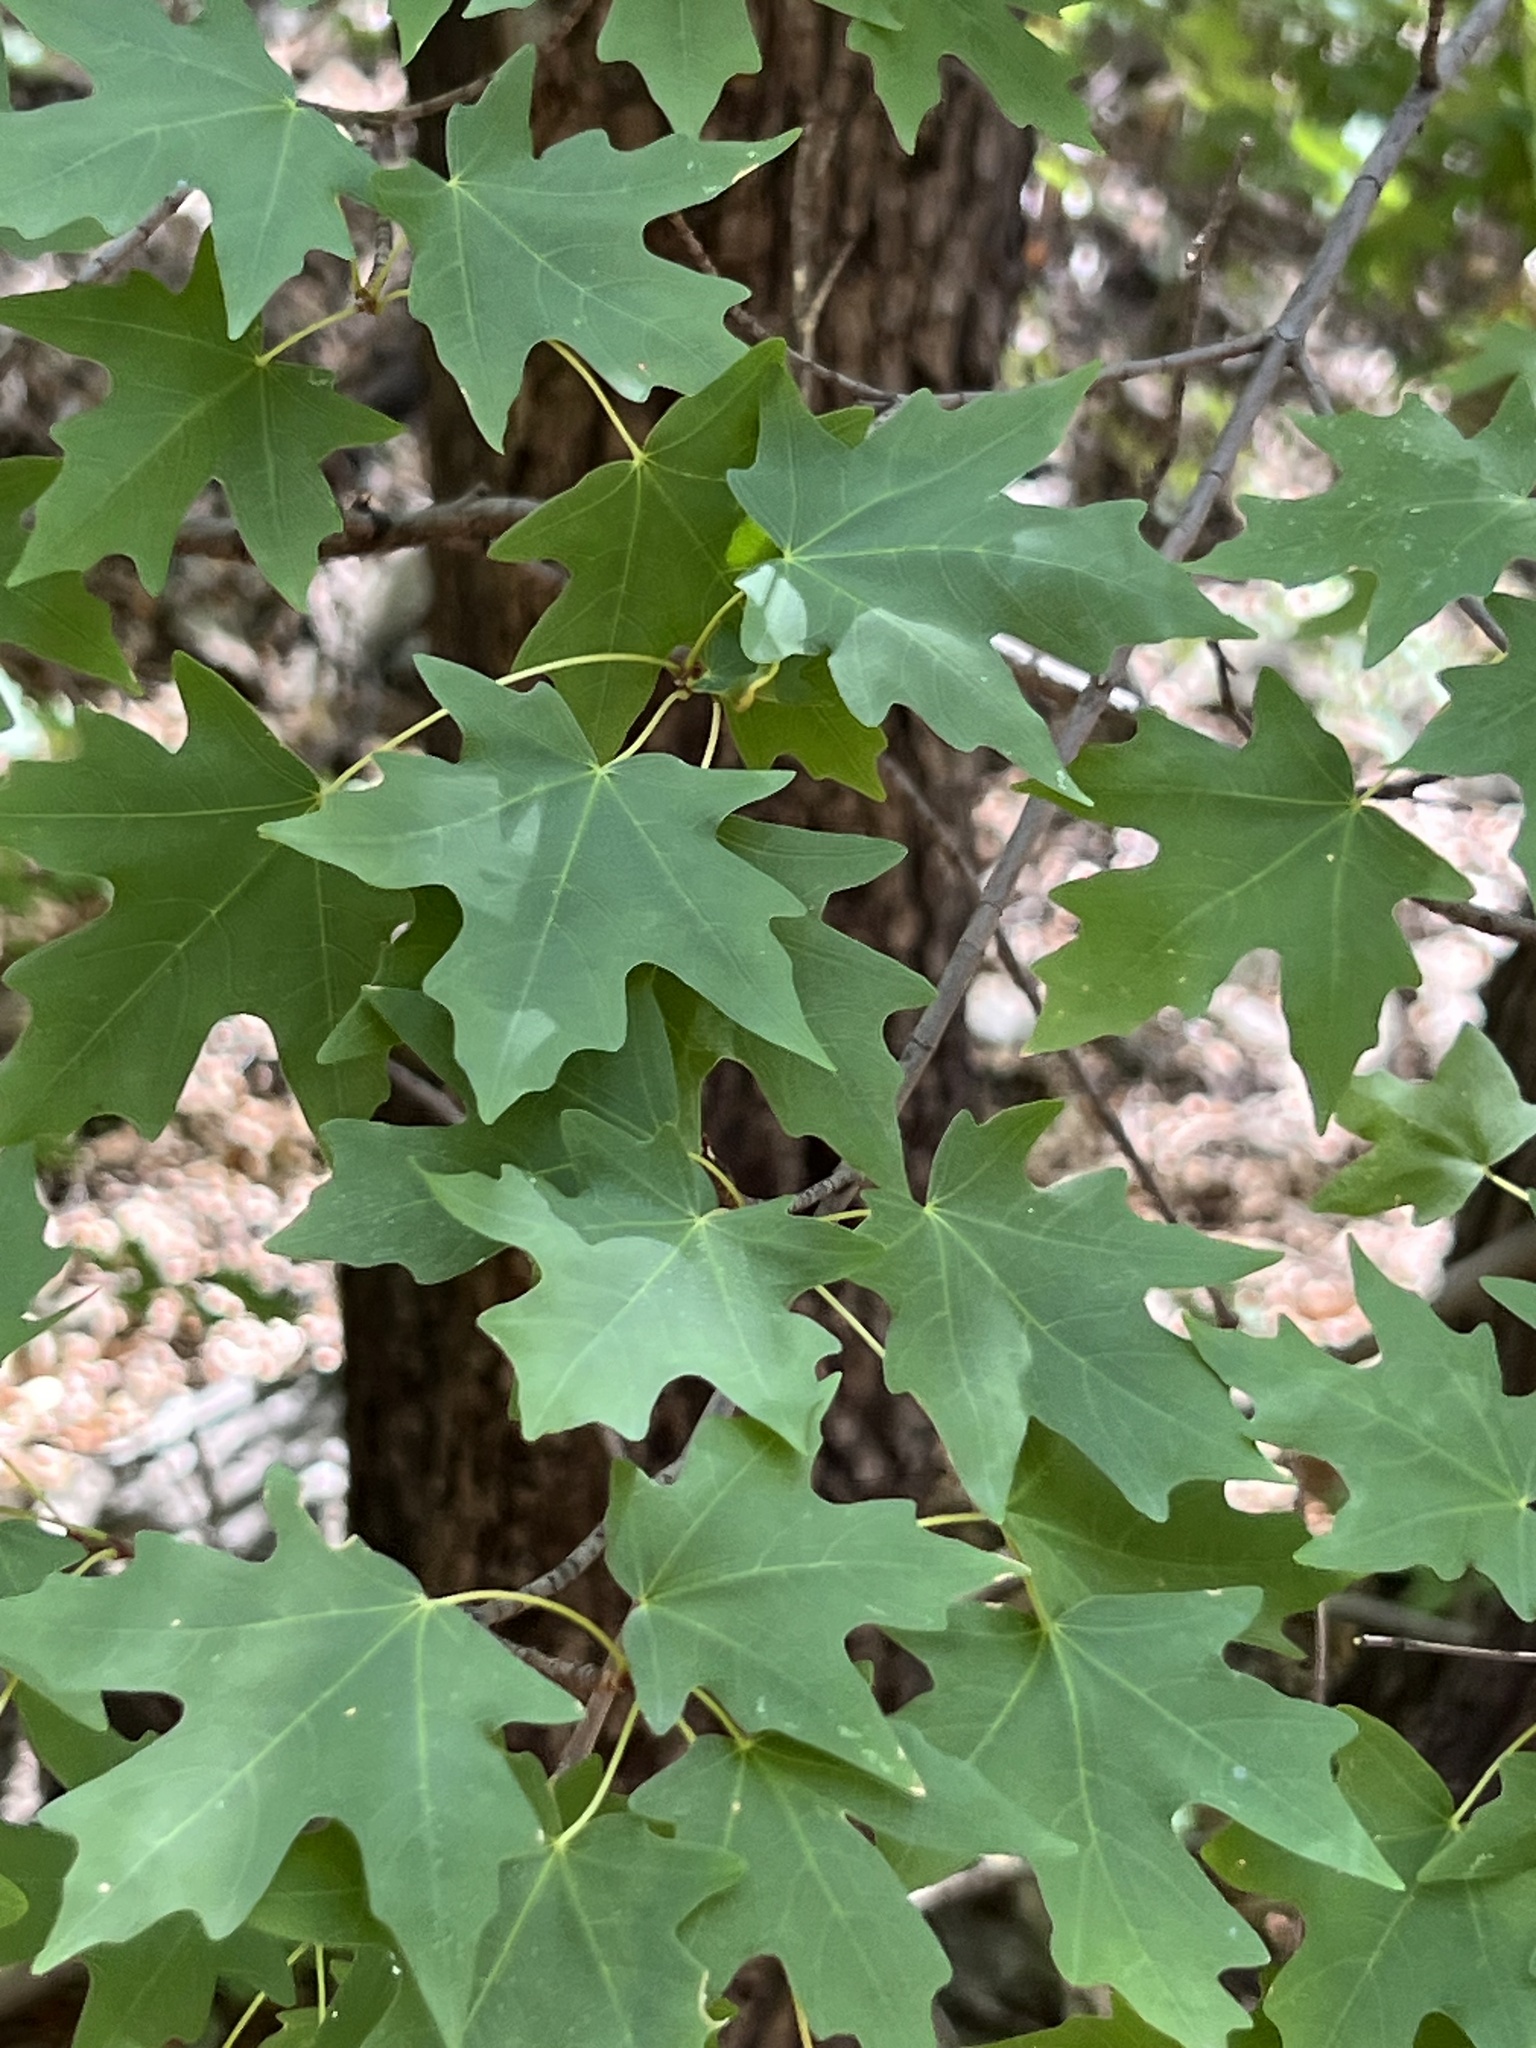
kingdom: Plantae
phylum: Tracheophyta
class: Magnoliopsida
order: Sapindales
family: Sapindaceae
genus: Acer
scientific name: Acer grandidentatum
